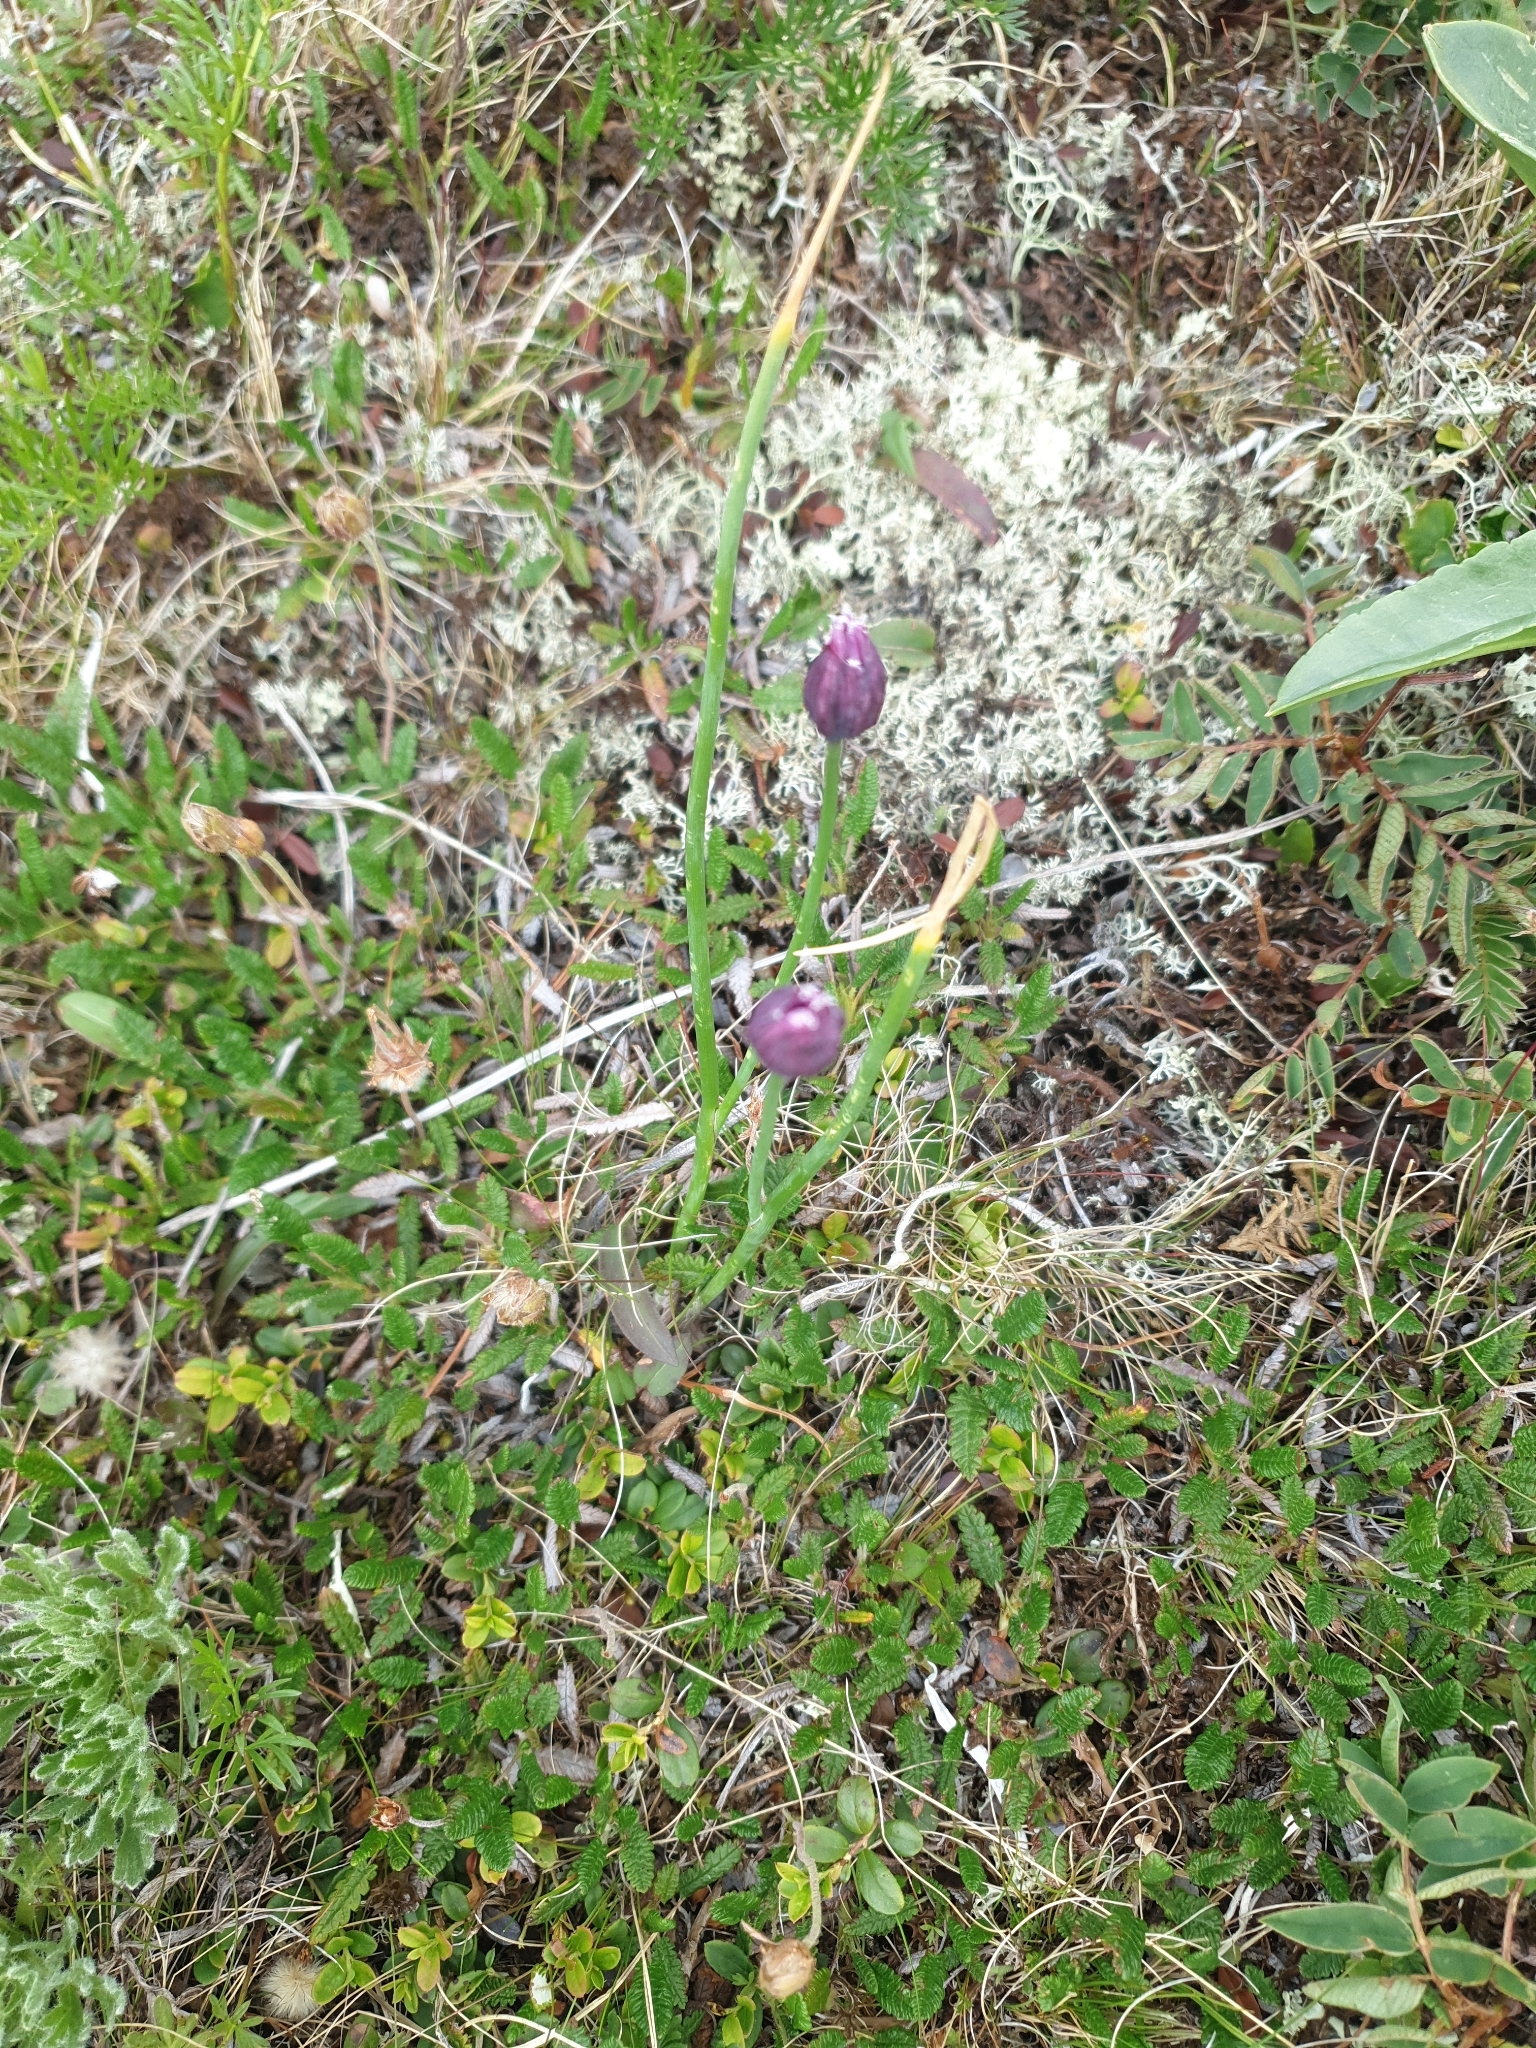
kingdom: Plantae
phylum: Tracheophyta
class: Liliopsida
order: Asparagales
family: Amaryllidaceae
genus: Allium
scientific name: Allium schoenoprasum
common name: Chives
